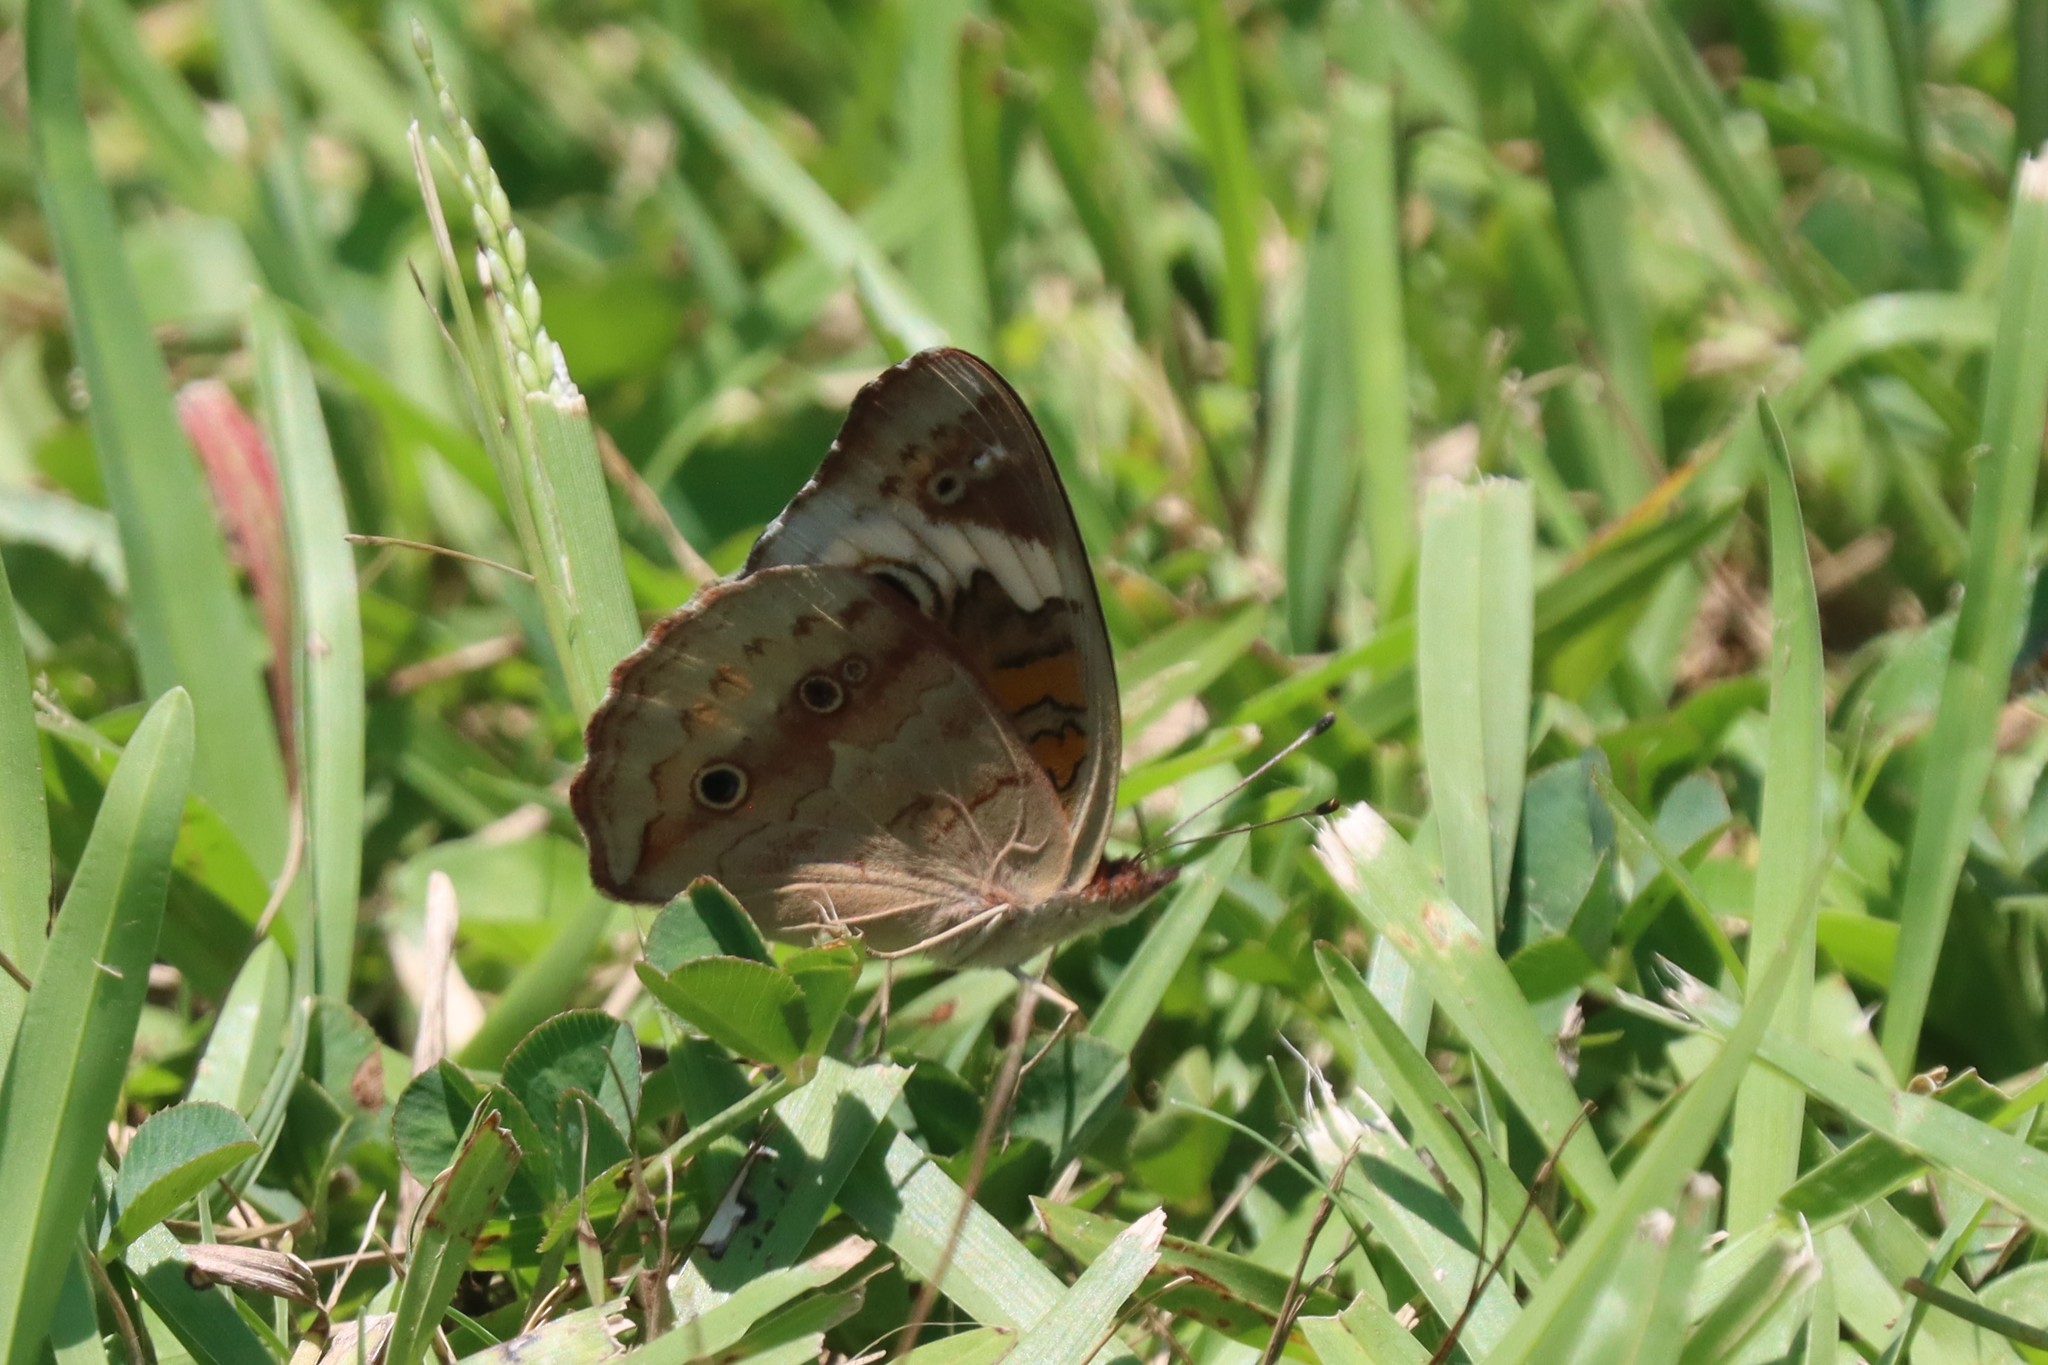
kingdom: Animalia
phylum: Arthropoda
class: Insecta
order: Lepidoptera
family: Nymphalidae
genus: Junonia
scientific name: Junonia coenia
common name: Common buckeye
